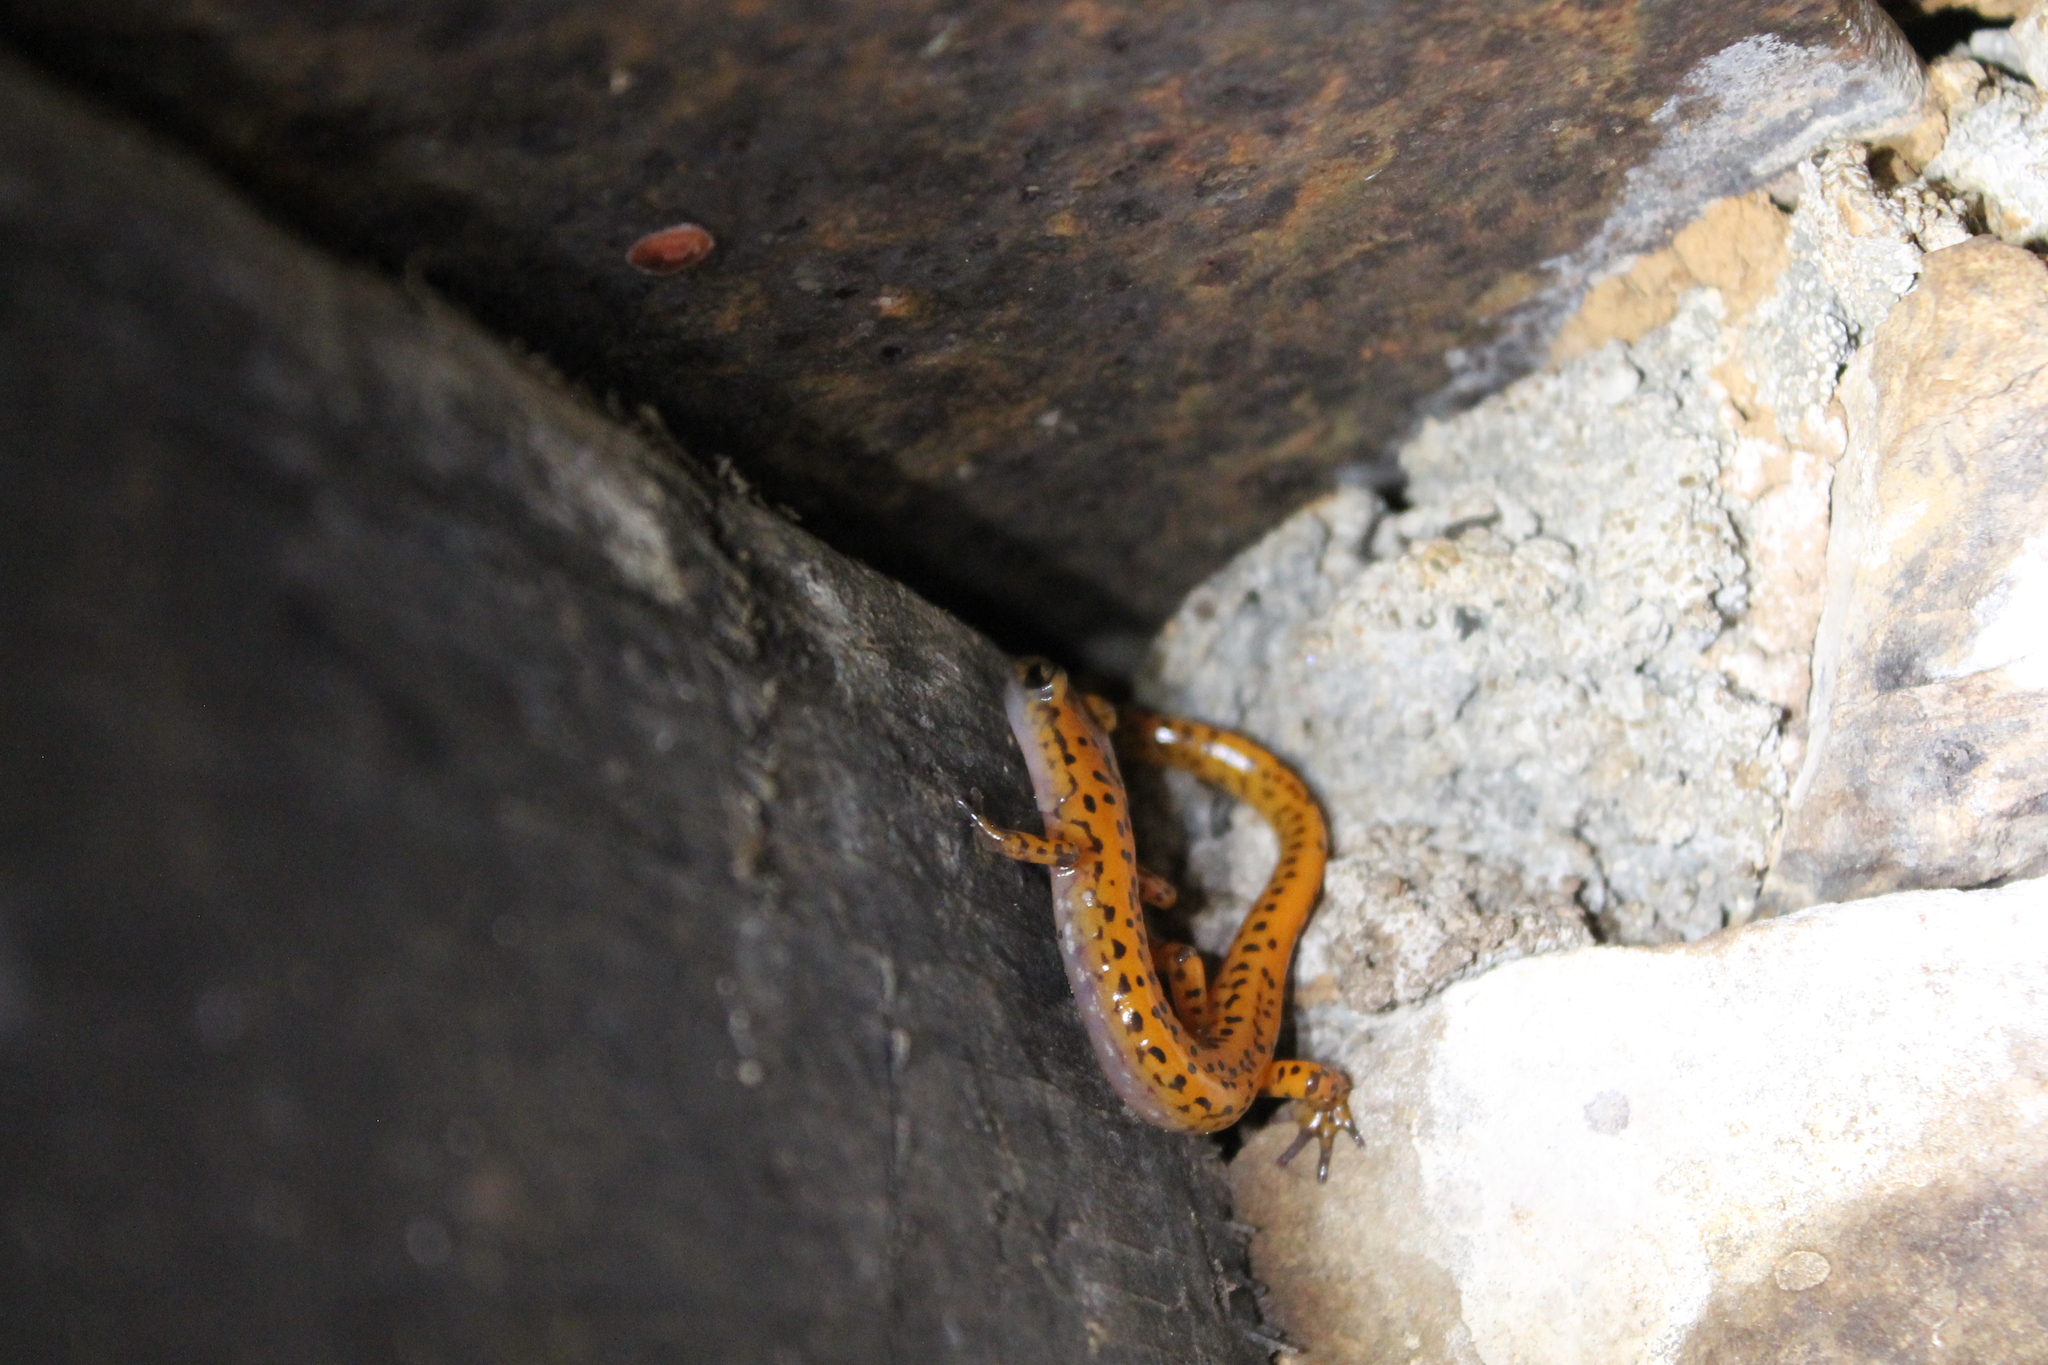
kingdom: Animalia
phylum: Chordata
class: Amphibia
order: Caudata
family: Plethodontidae
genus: Eurycea
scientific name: Eurycea lucifuga
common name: Cave salamander
